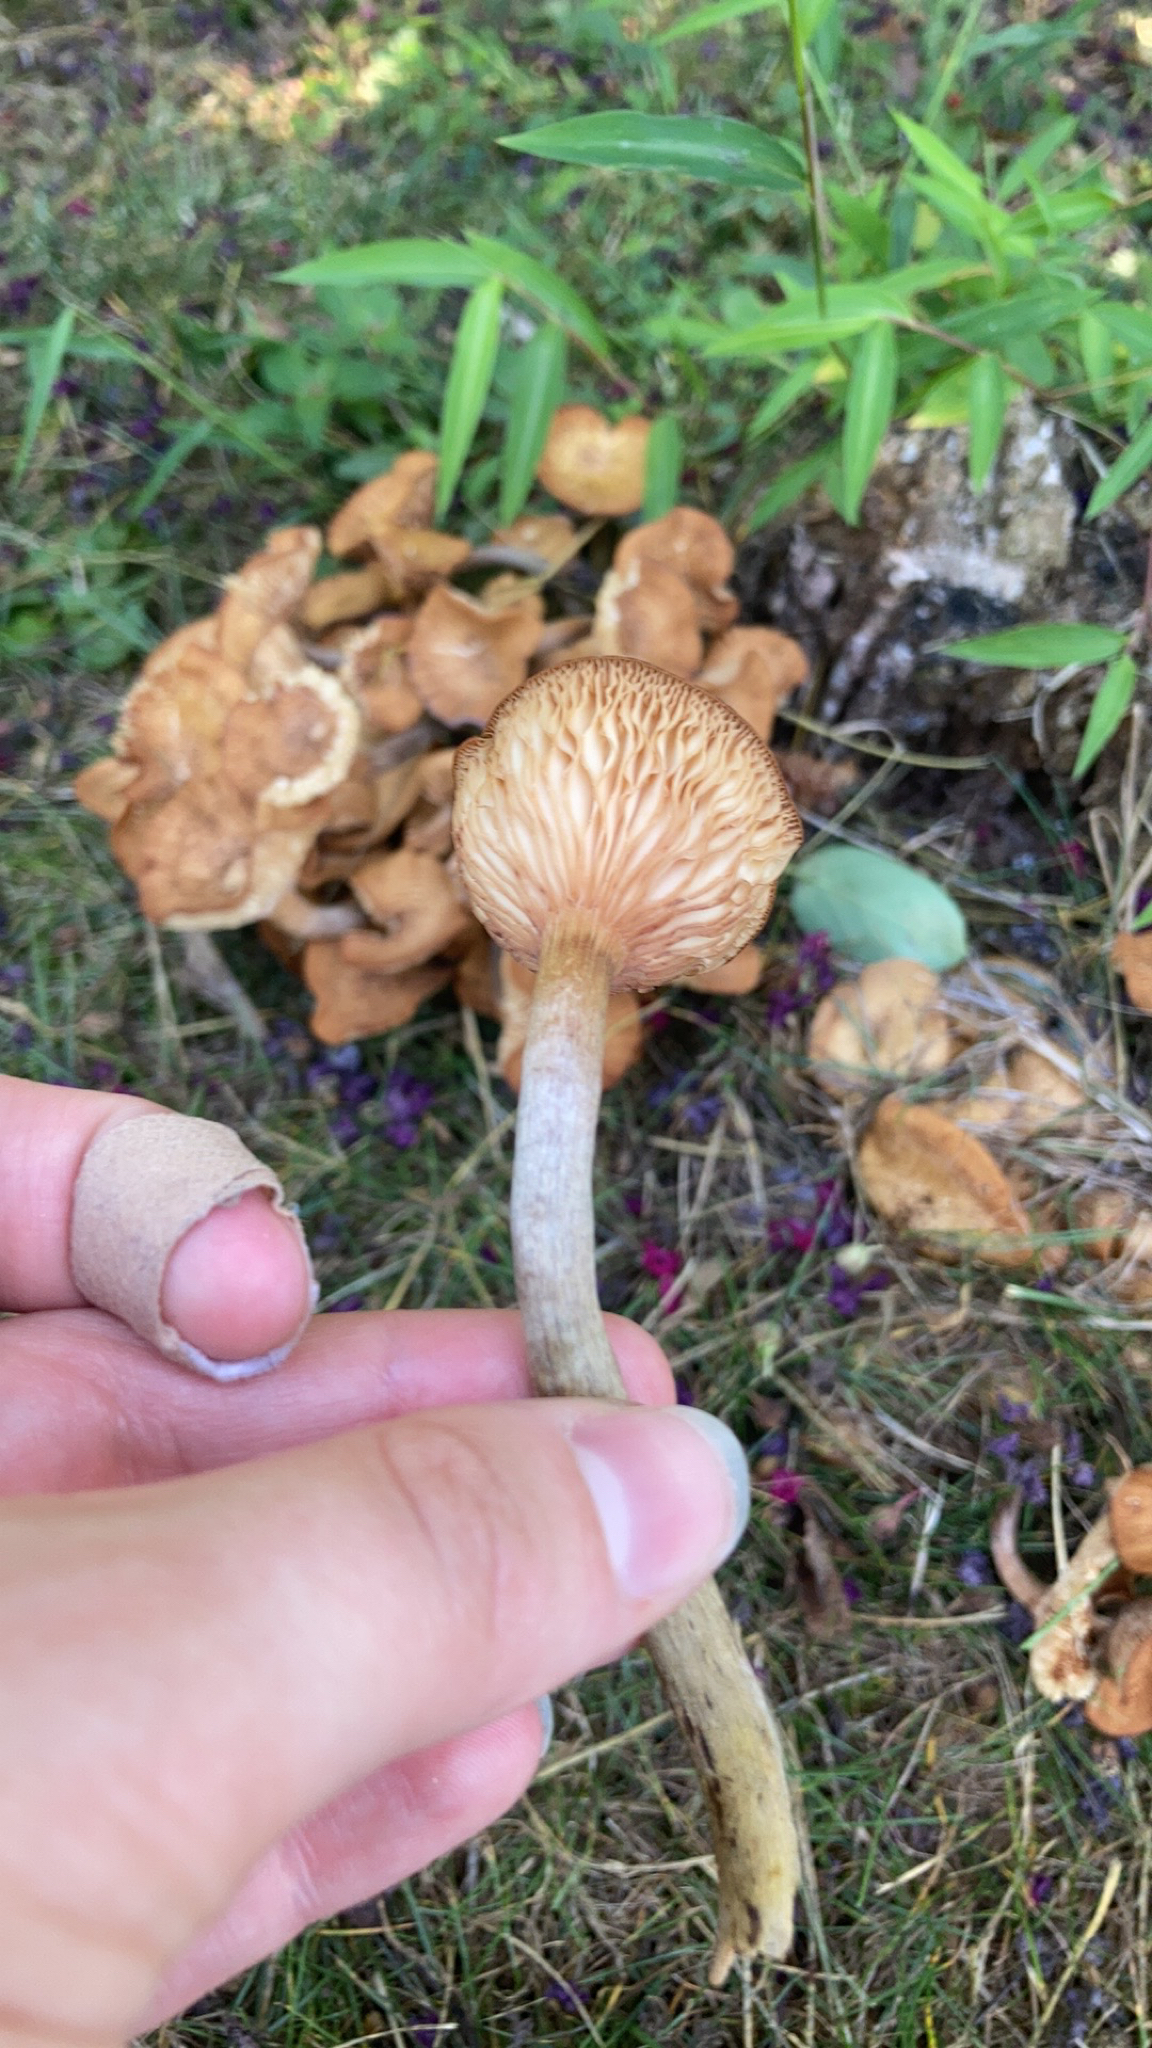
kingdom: Fungi
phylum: Basidiomycota
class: Agaricomycetes
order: Agaricales
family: Physalacriaceae
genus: Desarmillaria
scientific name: Desarmillaria caespitosa
